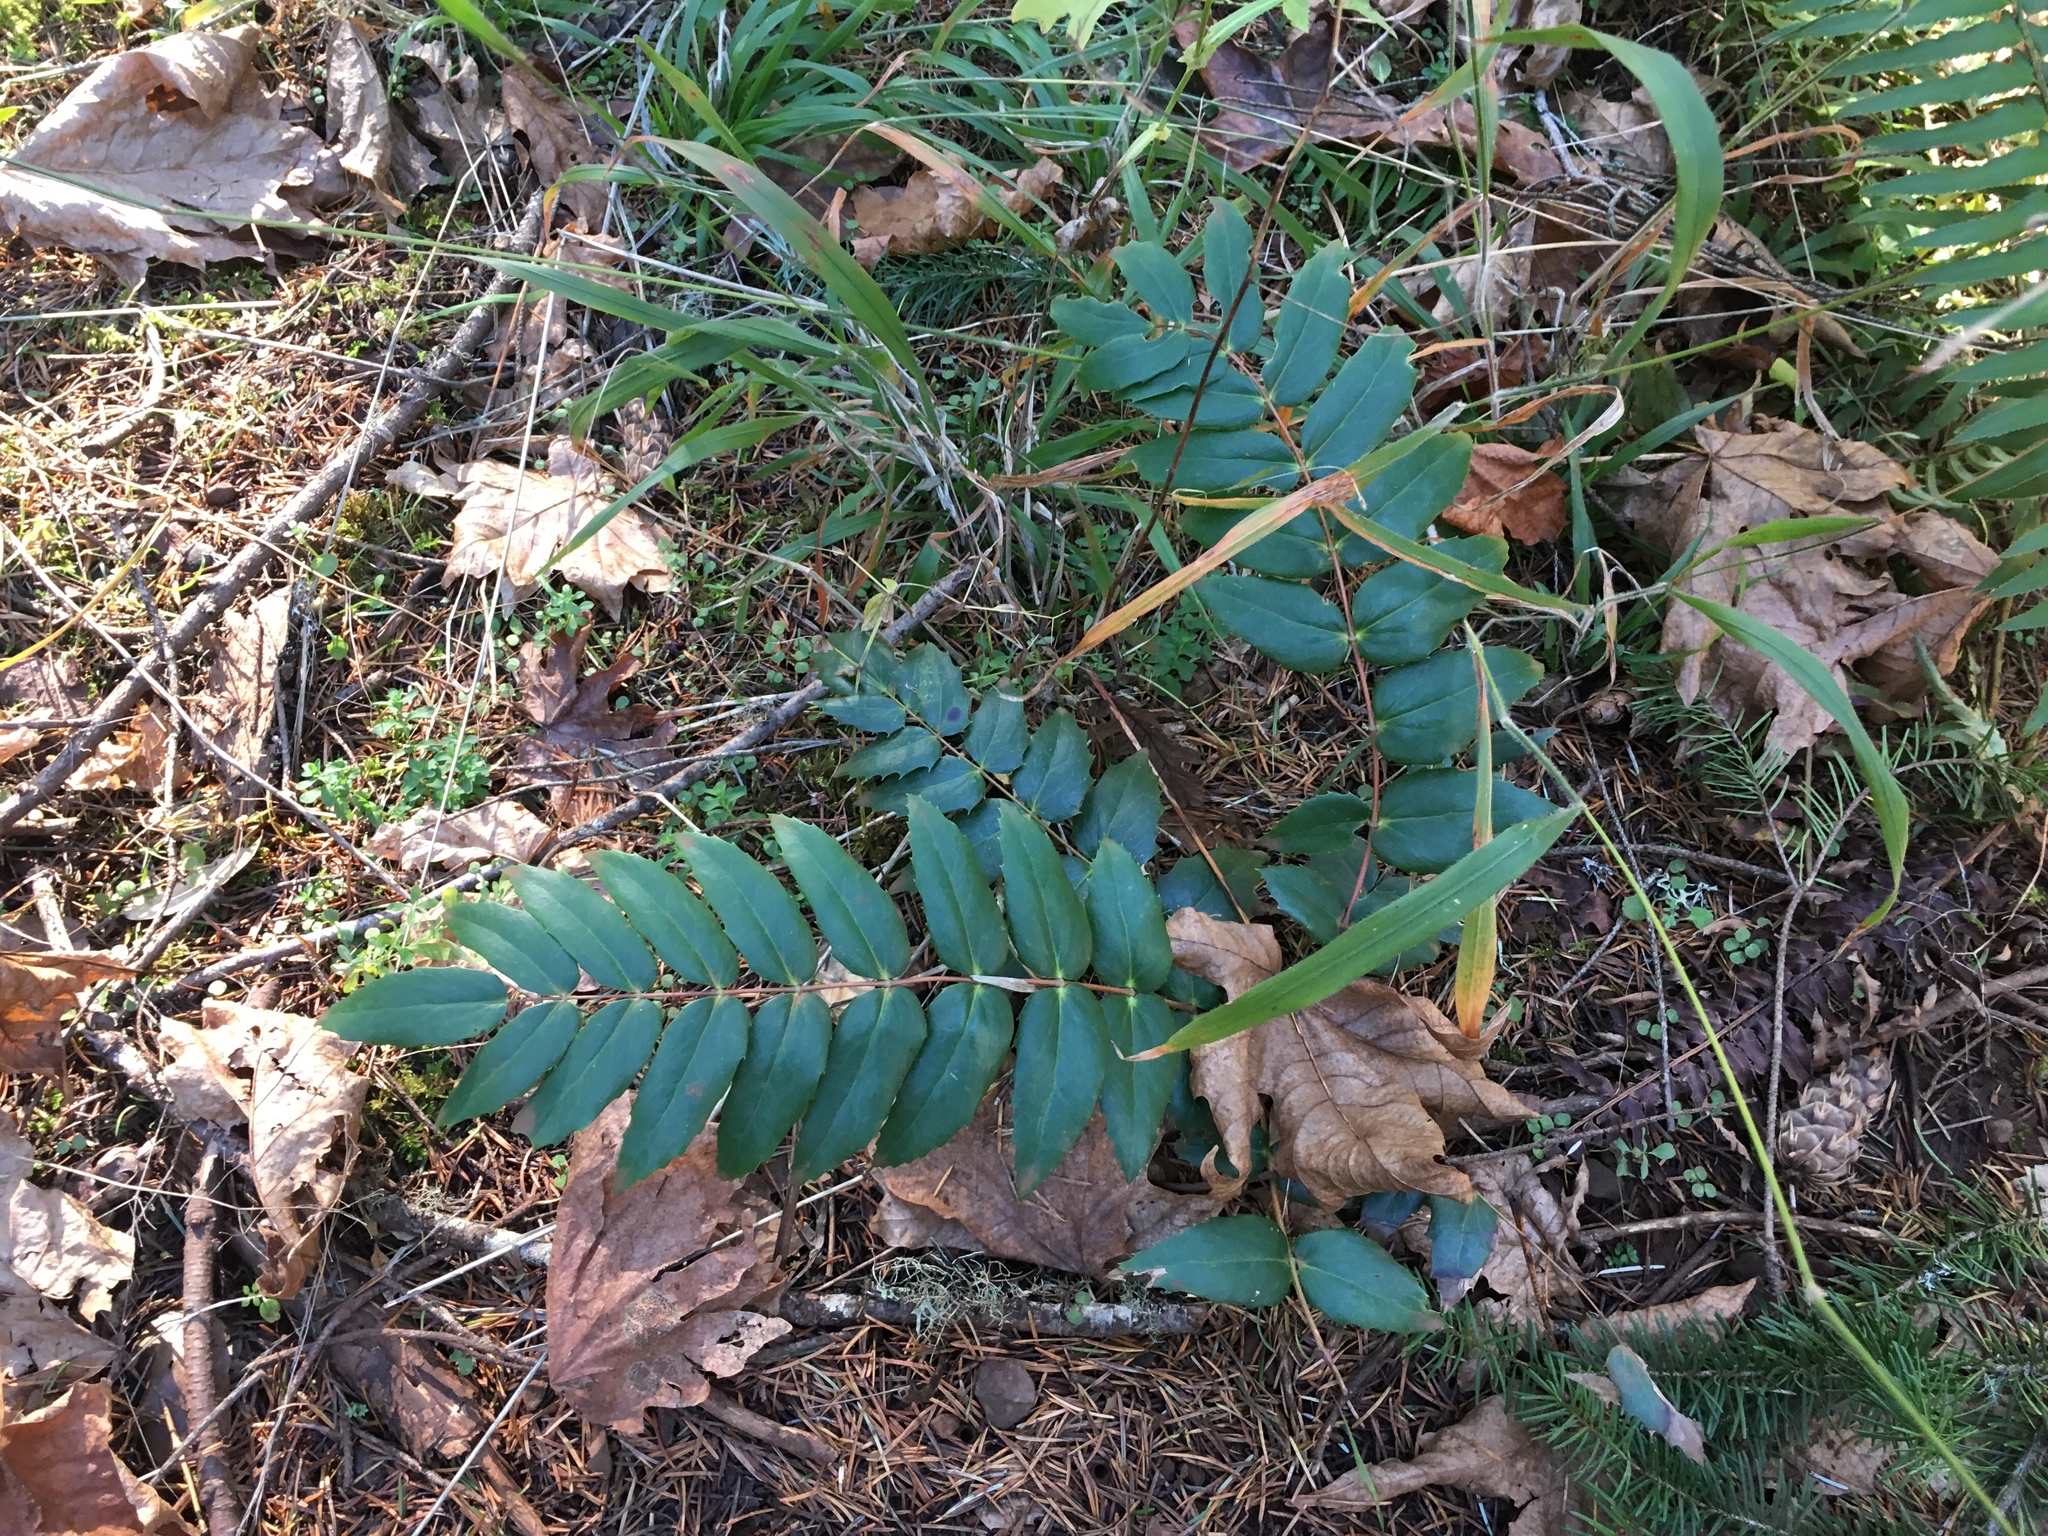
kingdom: Plantae
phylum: Tracheophyta
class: Magnoliopsida
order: Ranunculales
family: Berberidaceae
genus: Mahonia
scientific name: Mahonia nervosa
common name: Cascade oregon-grape
